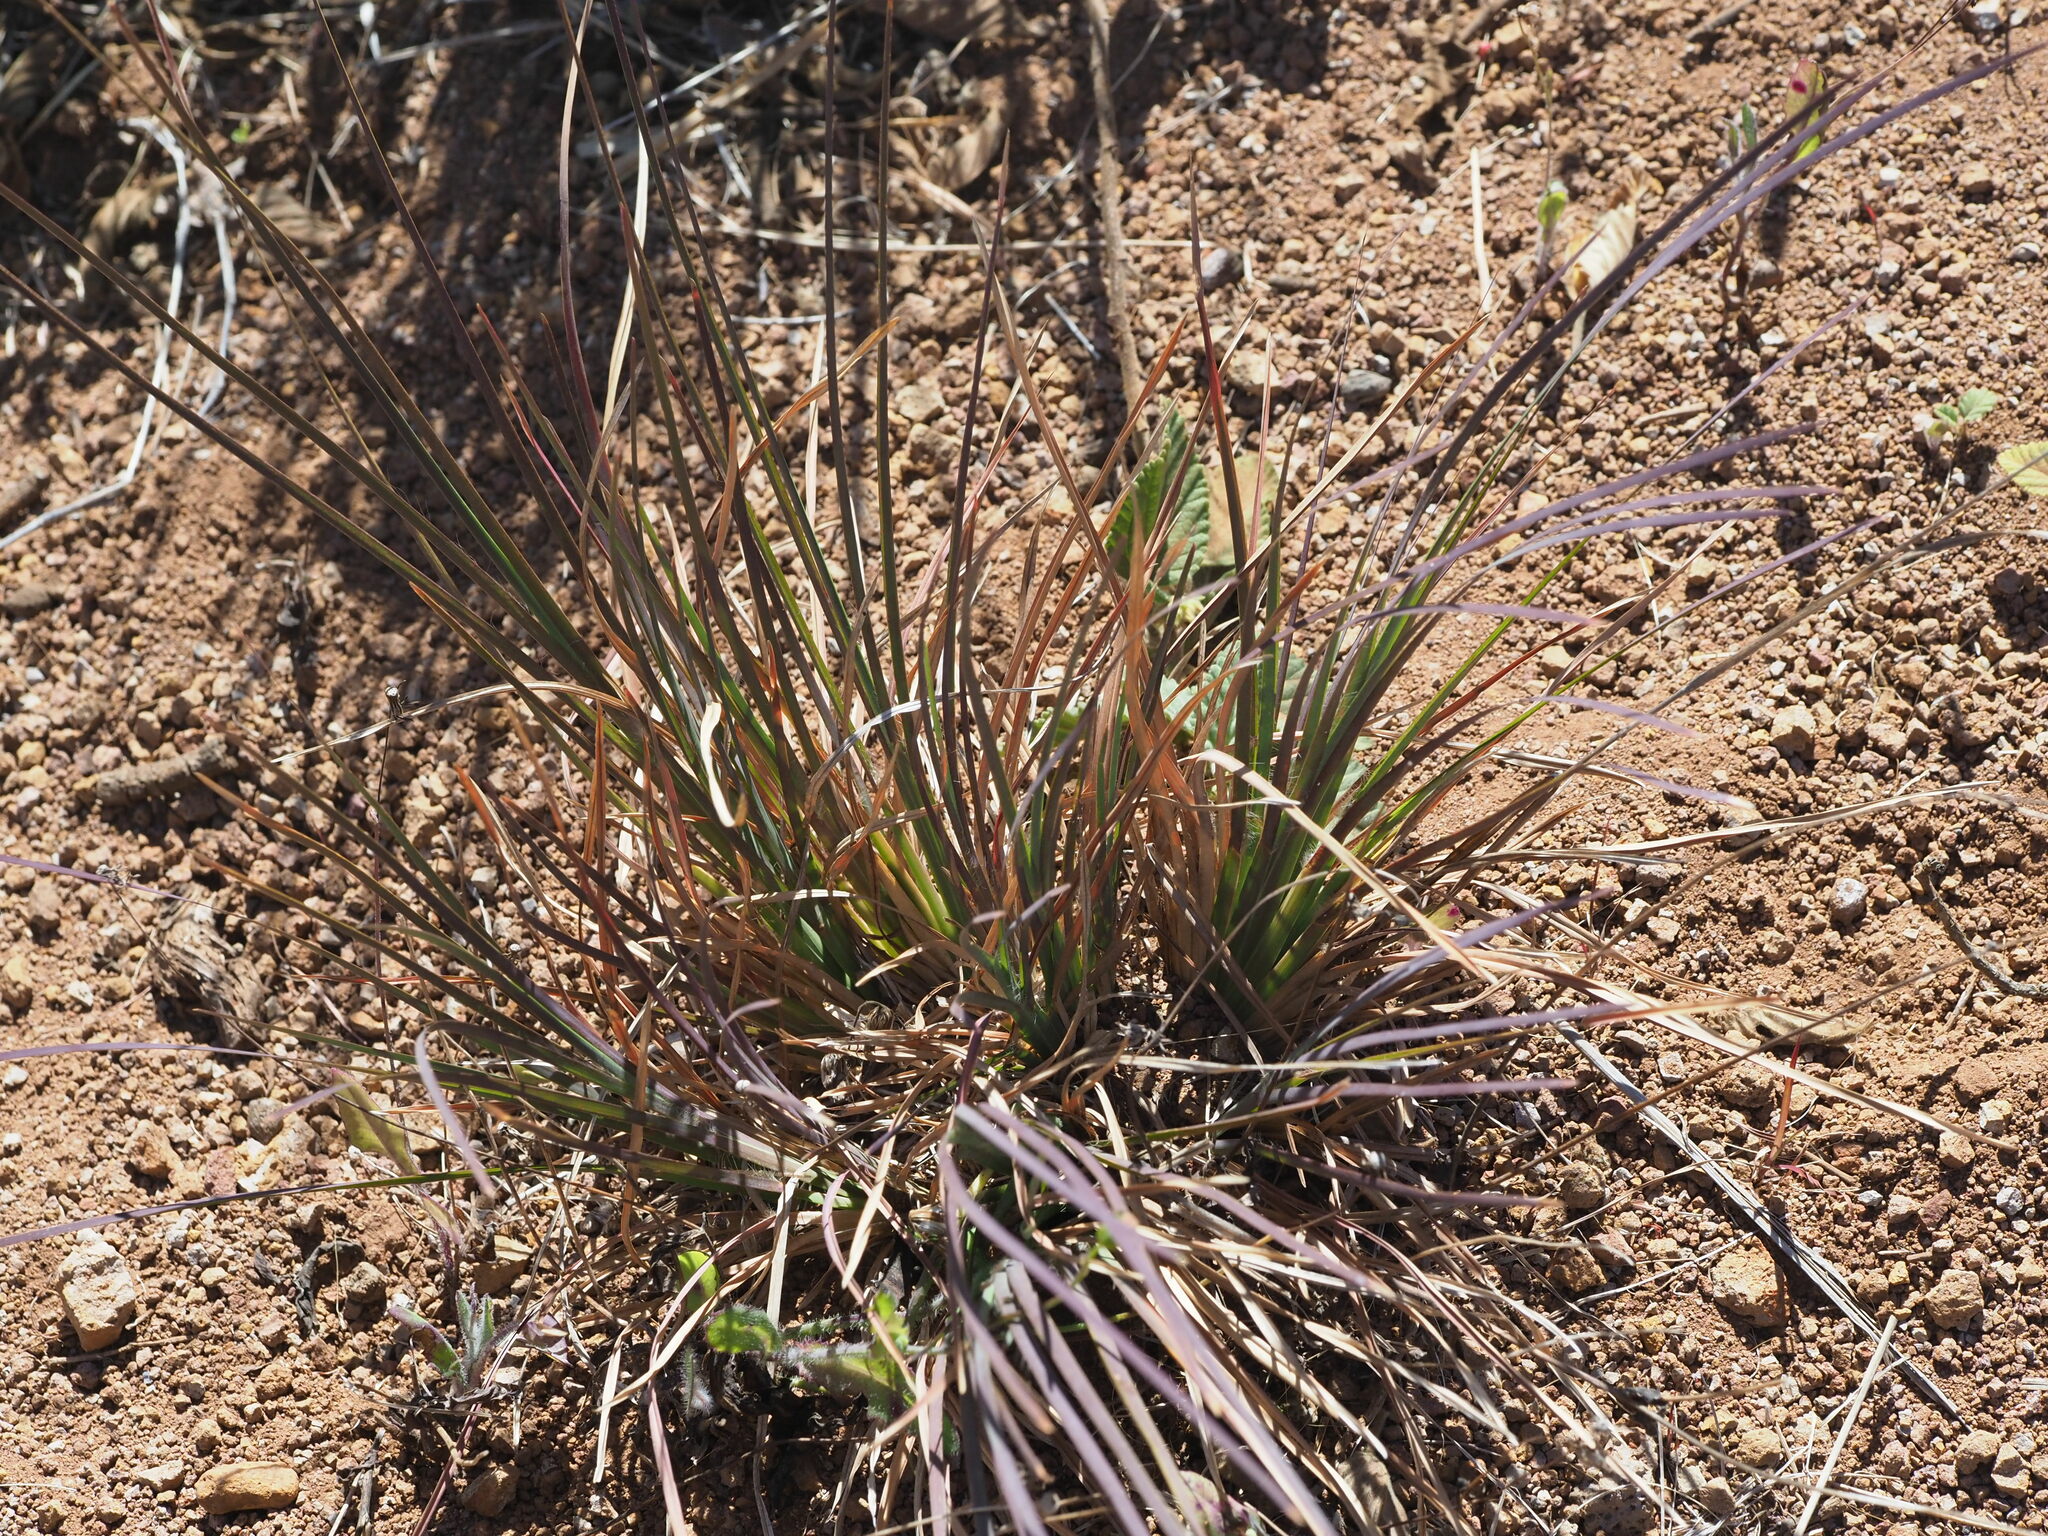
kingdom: Plantae
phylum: Tracheophyta
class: Liliopsida
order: Poales
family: Poaceae
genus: Heteropogon
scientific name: Heteropogon contortus
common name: Tanglehead
